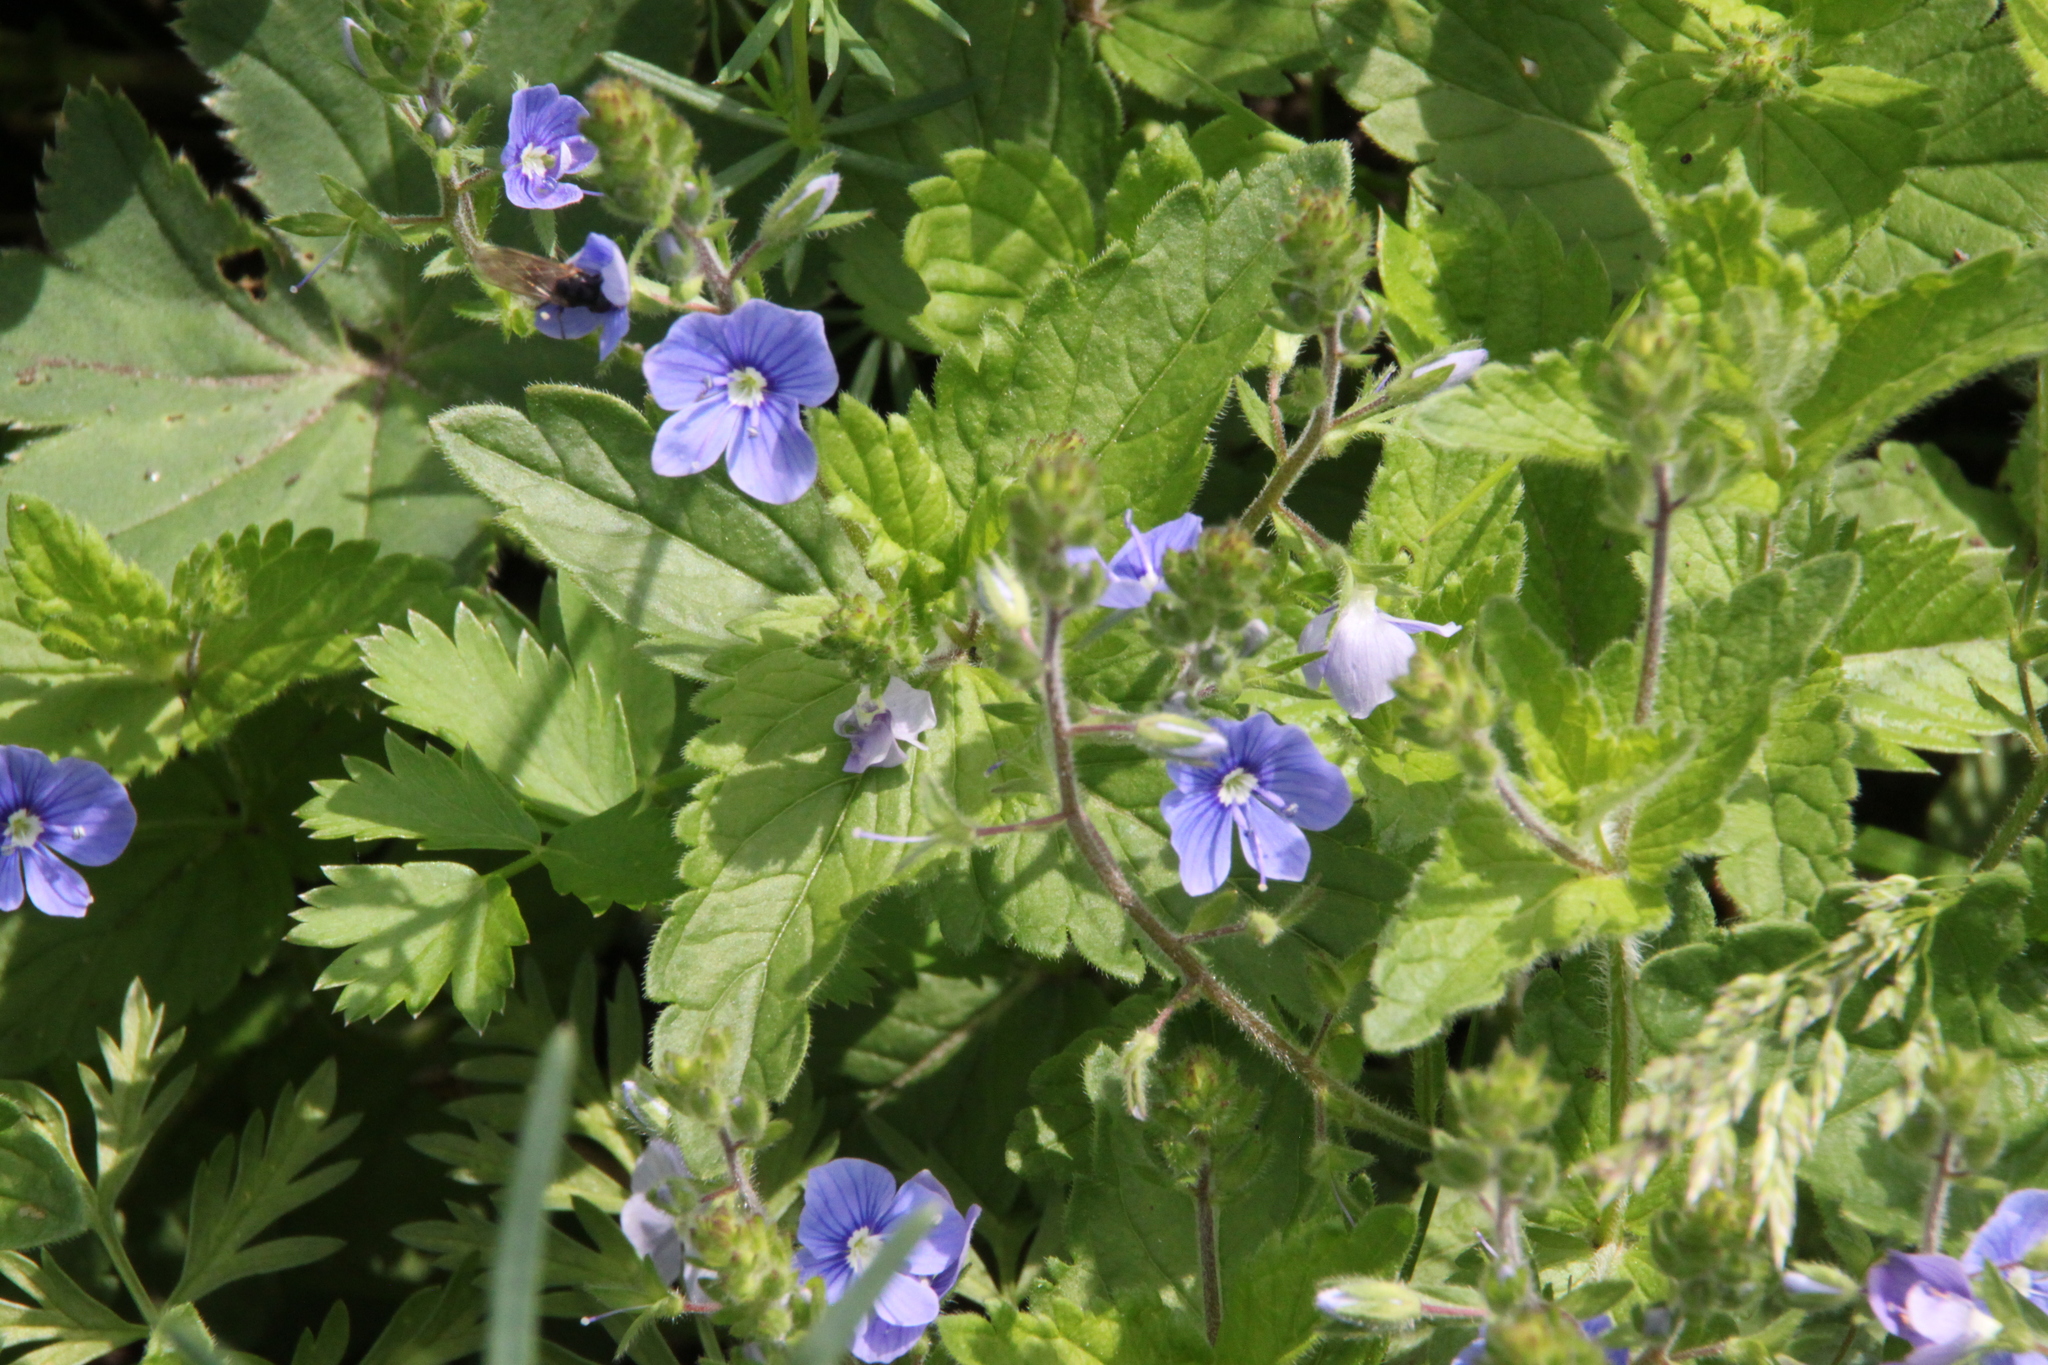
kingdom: Plantae
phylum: Tracheophyta
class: Magnoliopsida
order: Lamiales
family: Plantaginaceae
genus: Veronica
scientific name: Veronica chamaedrys
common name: Germander speedwell
